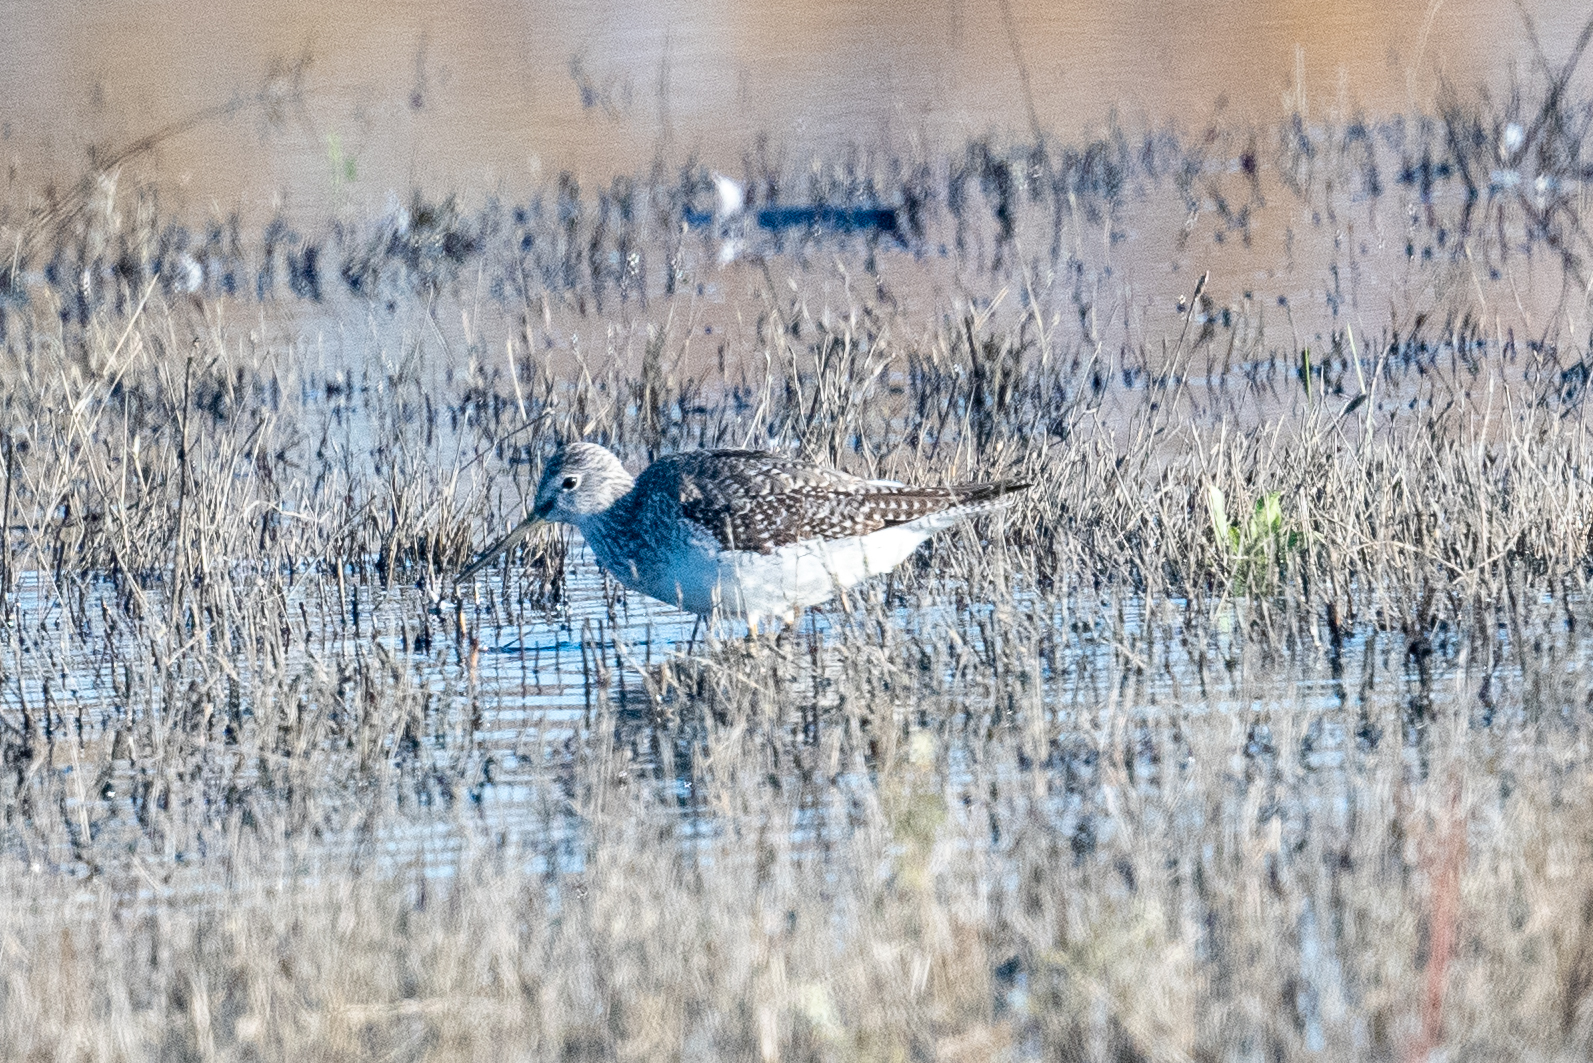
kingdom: Animalia
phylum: Chordata
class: Aves
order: Charadriiformes
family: Scolopacidae
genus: Tringa
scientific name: Tringa melanoleuca
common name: Greater yellowlegs
